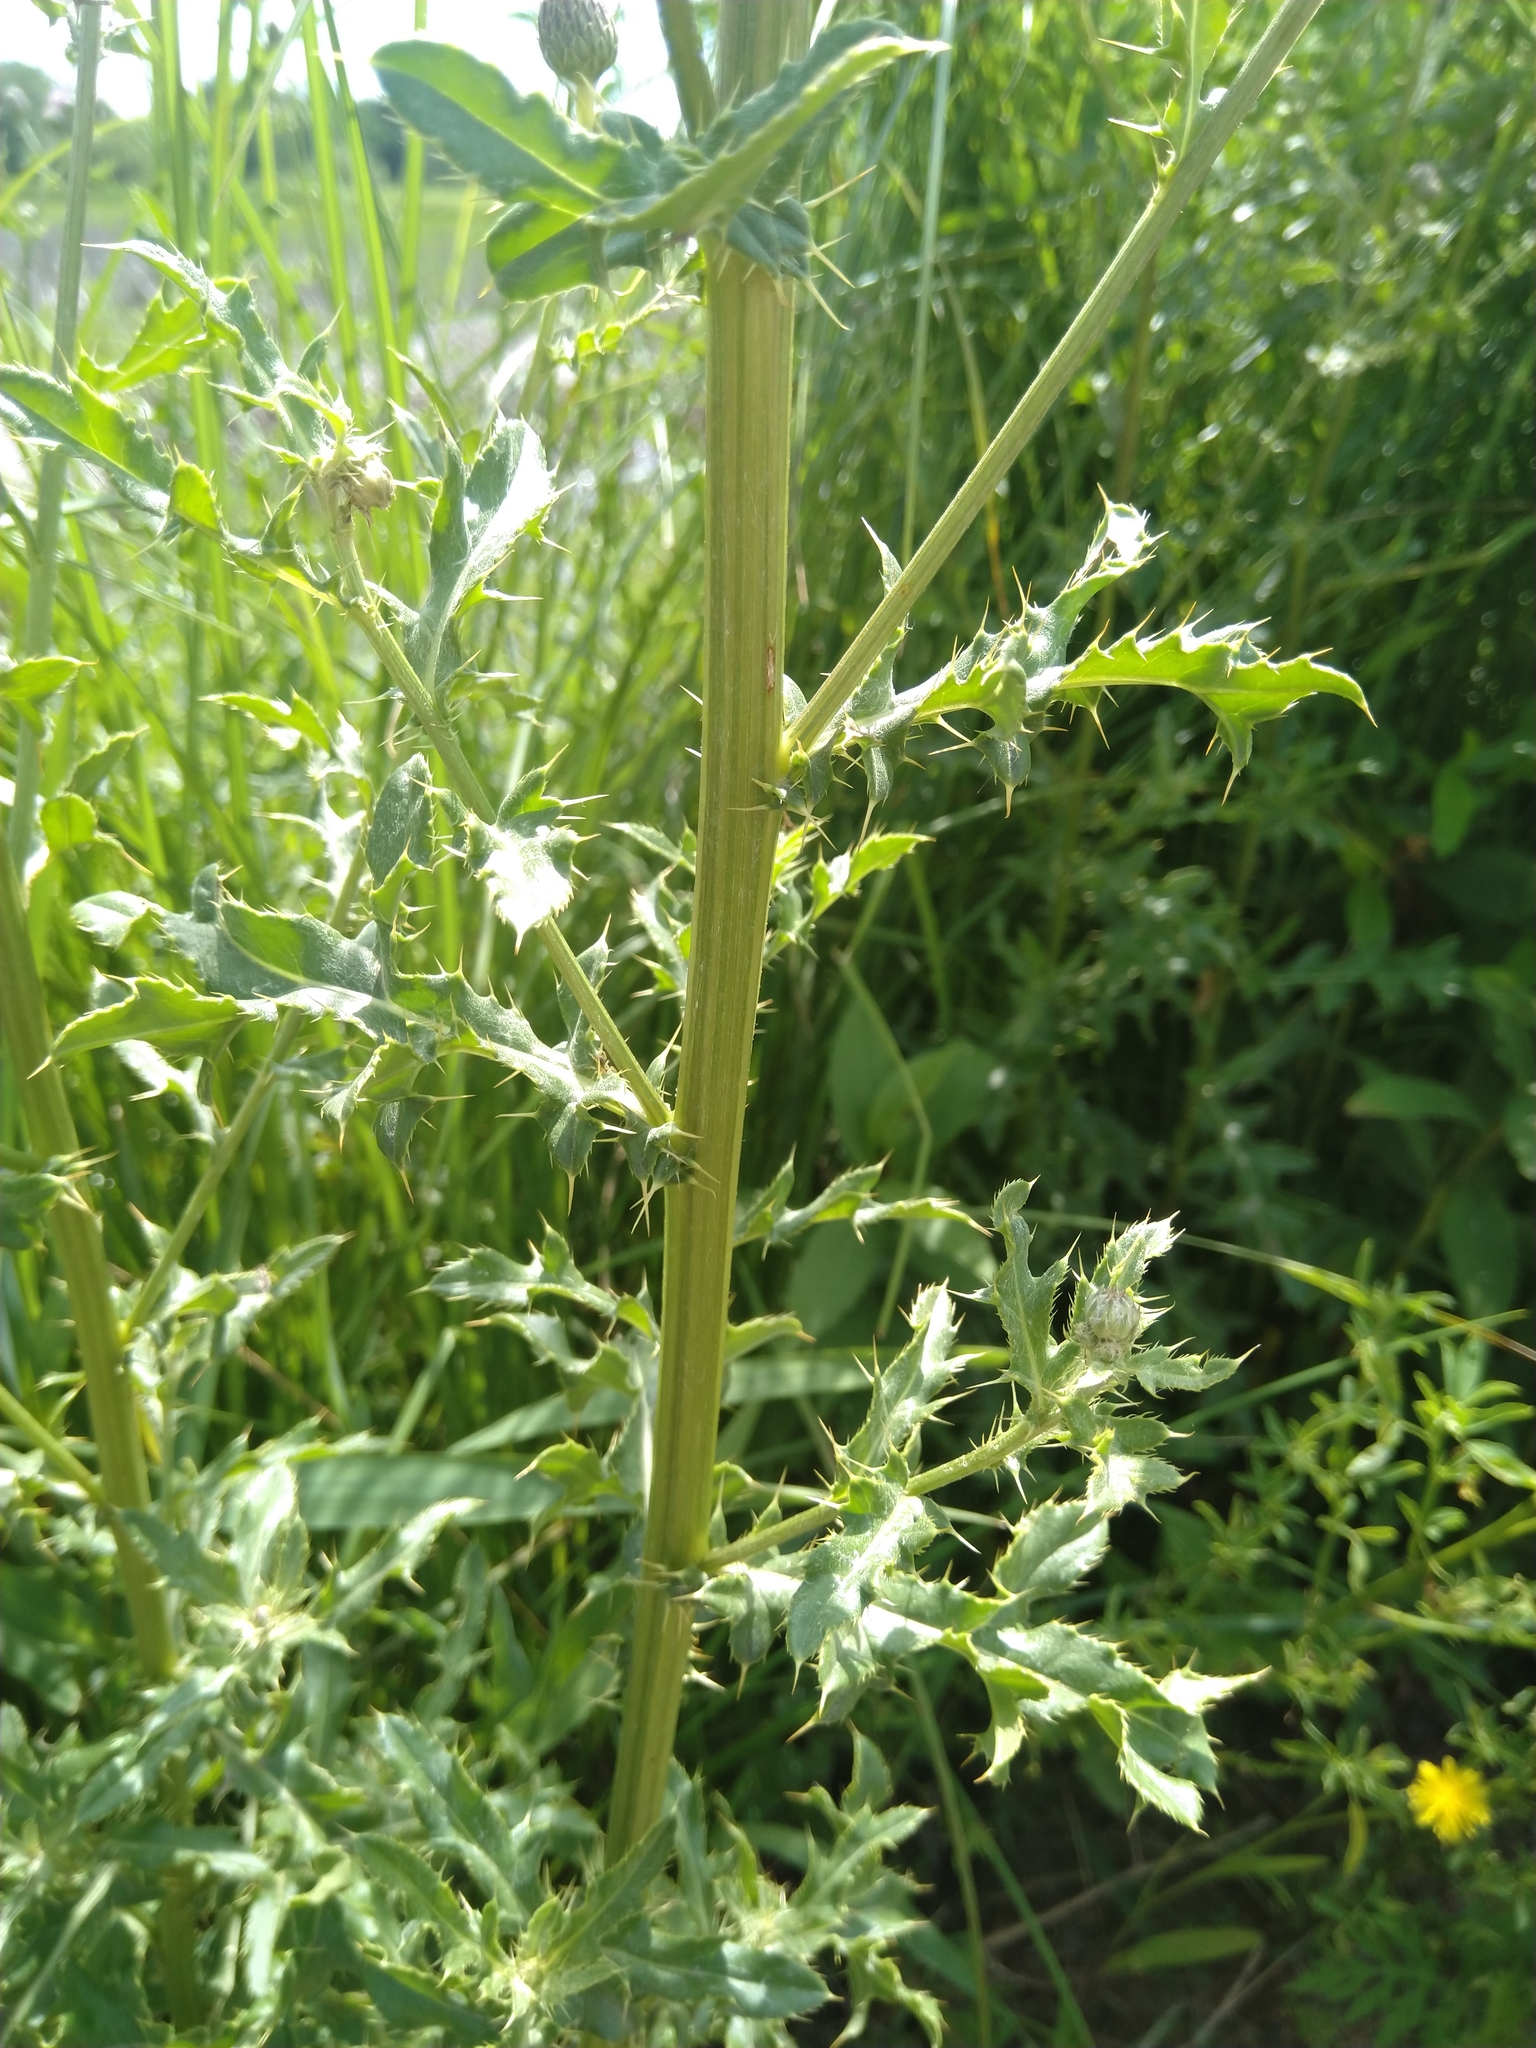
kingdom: Plantae
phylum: Tracheophyta
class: Magnoliopsida
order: Asterales
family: Asteraceae
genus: Cirsium
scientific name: Cirsium arvense
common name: Creeping thistle
